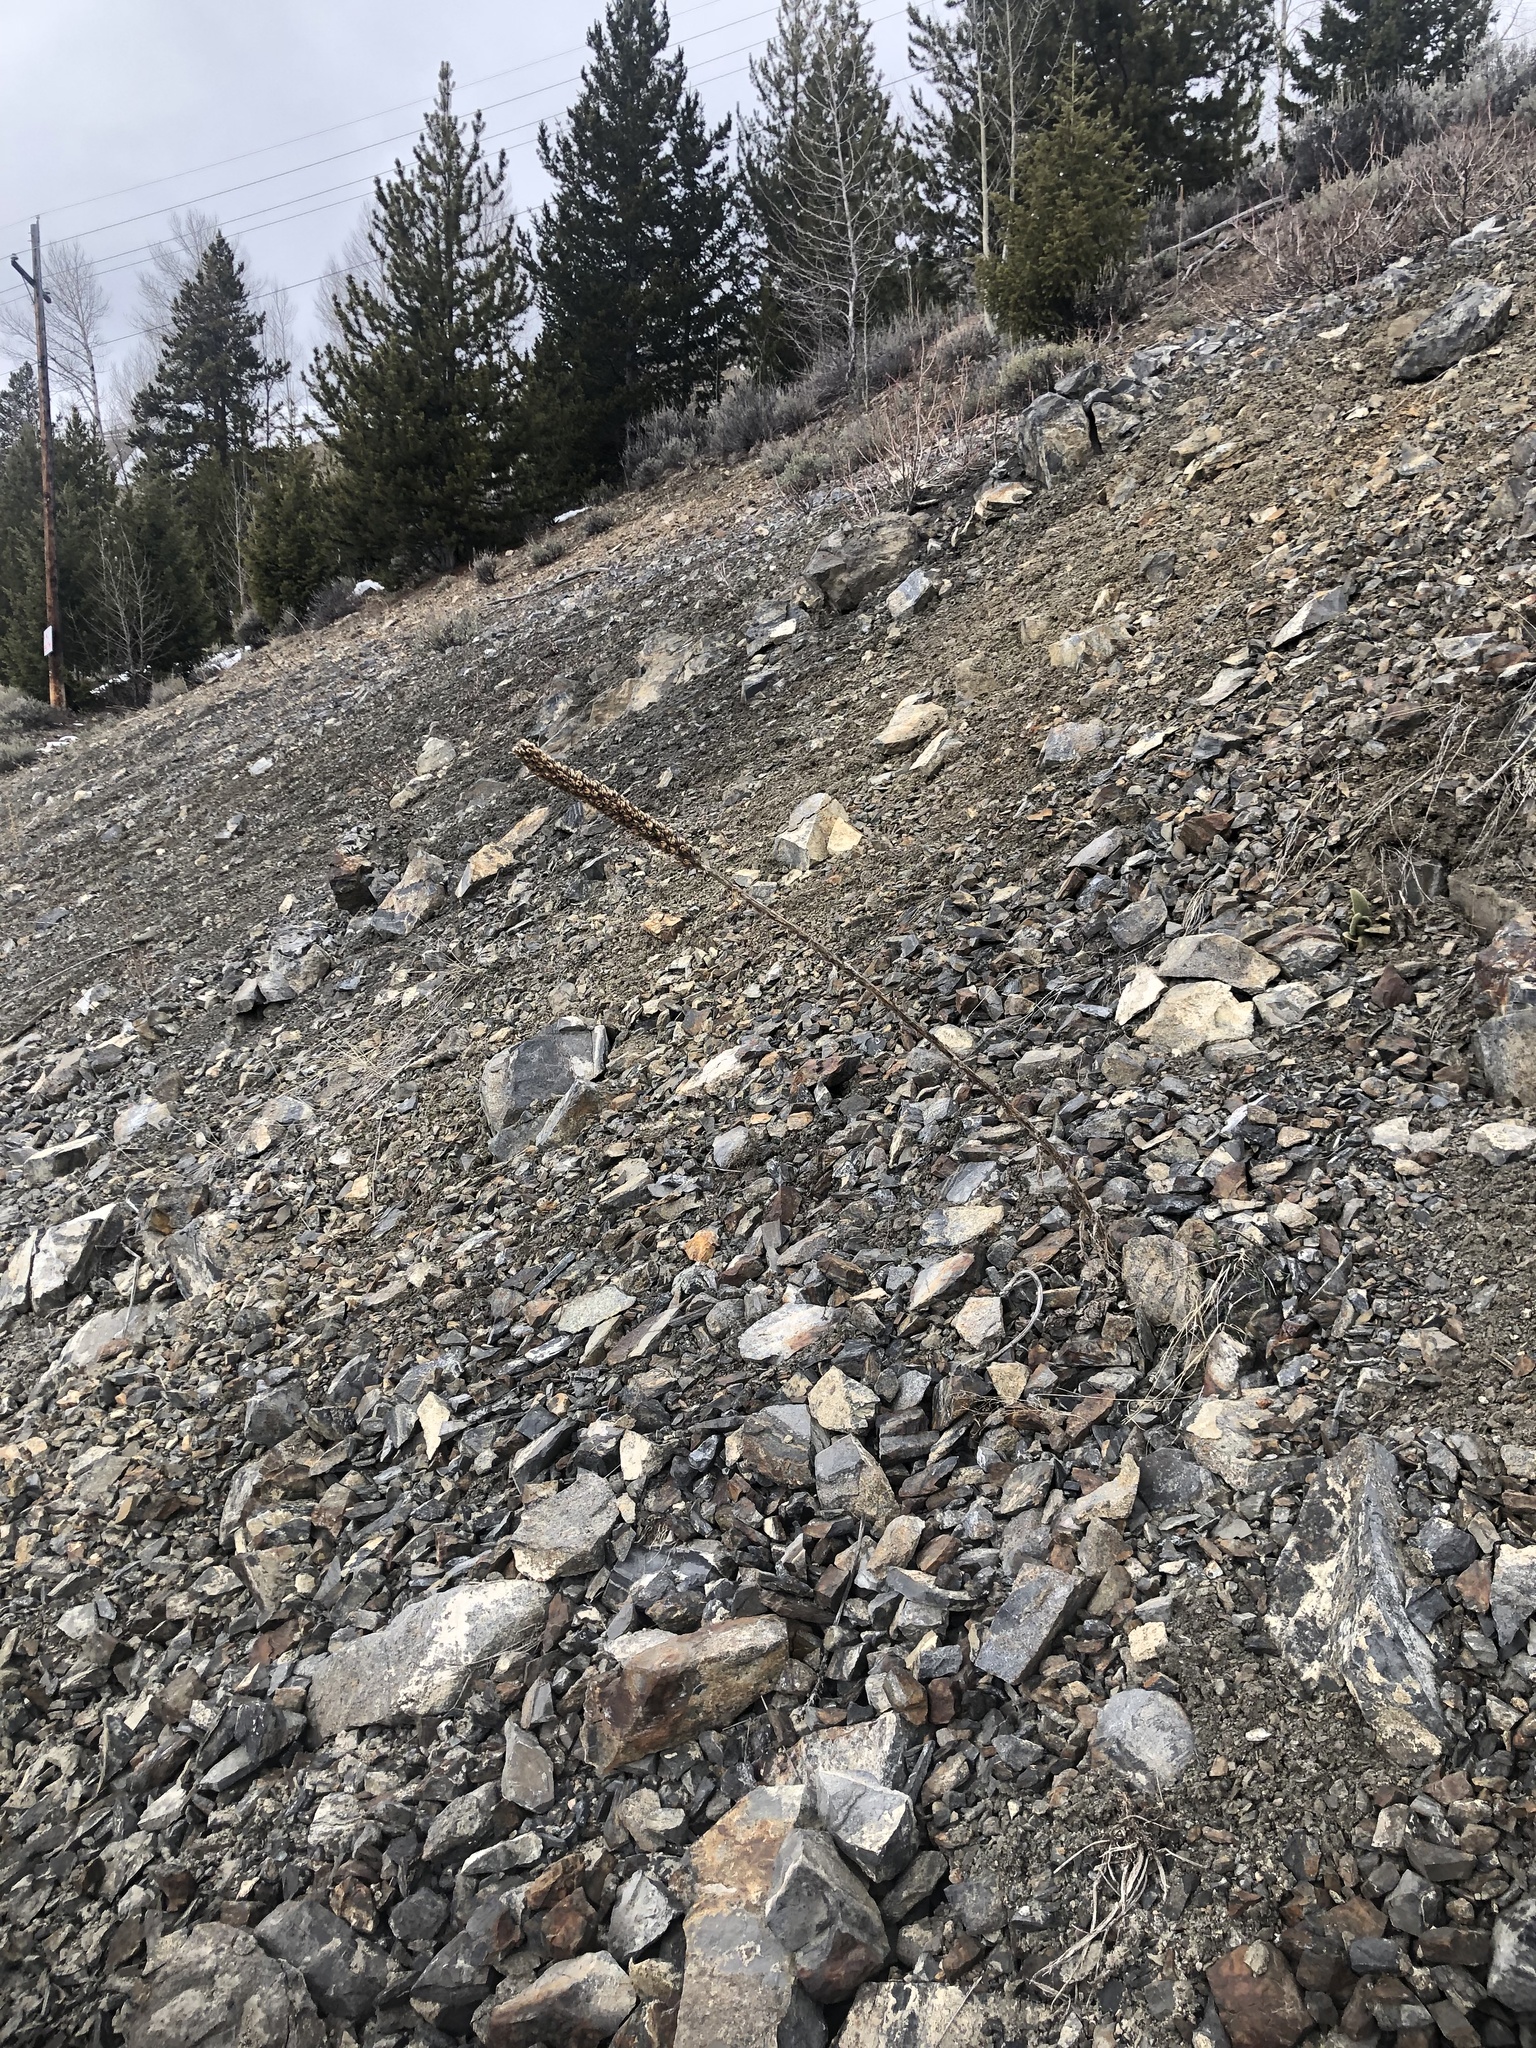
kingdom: Plantae
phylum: Tracheophyta
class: Magnoliopsida
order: Lamiales
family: Scrophulariaceae
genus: Verbascum
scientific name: Verbascum thapsus
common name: Common mullein
